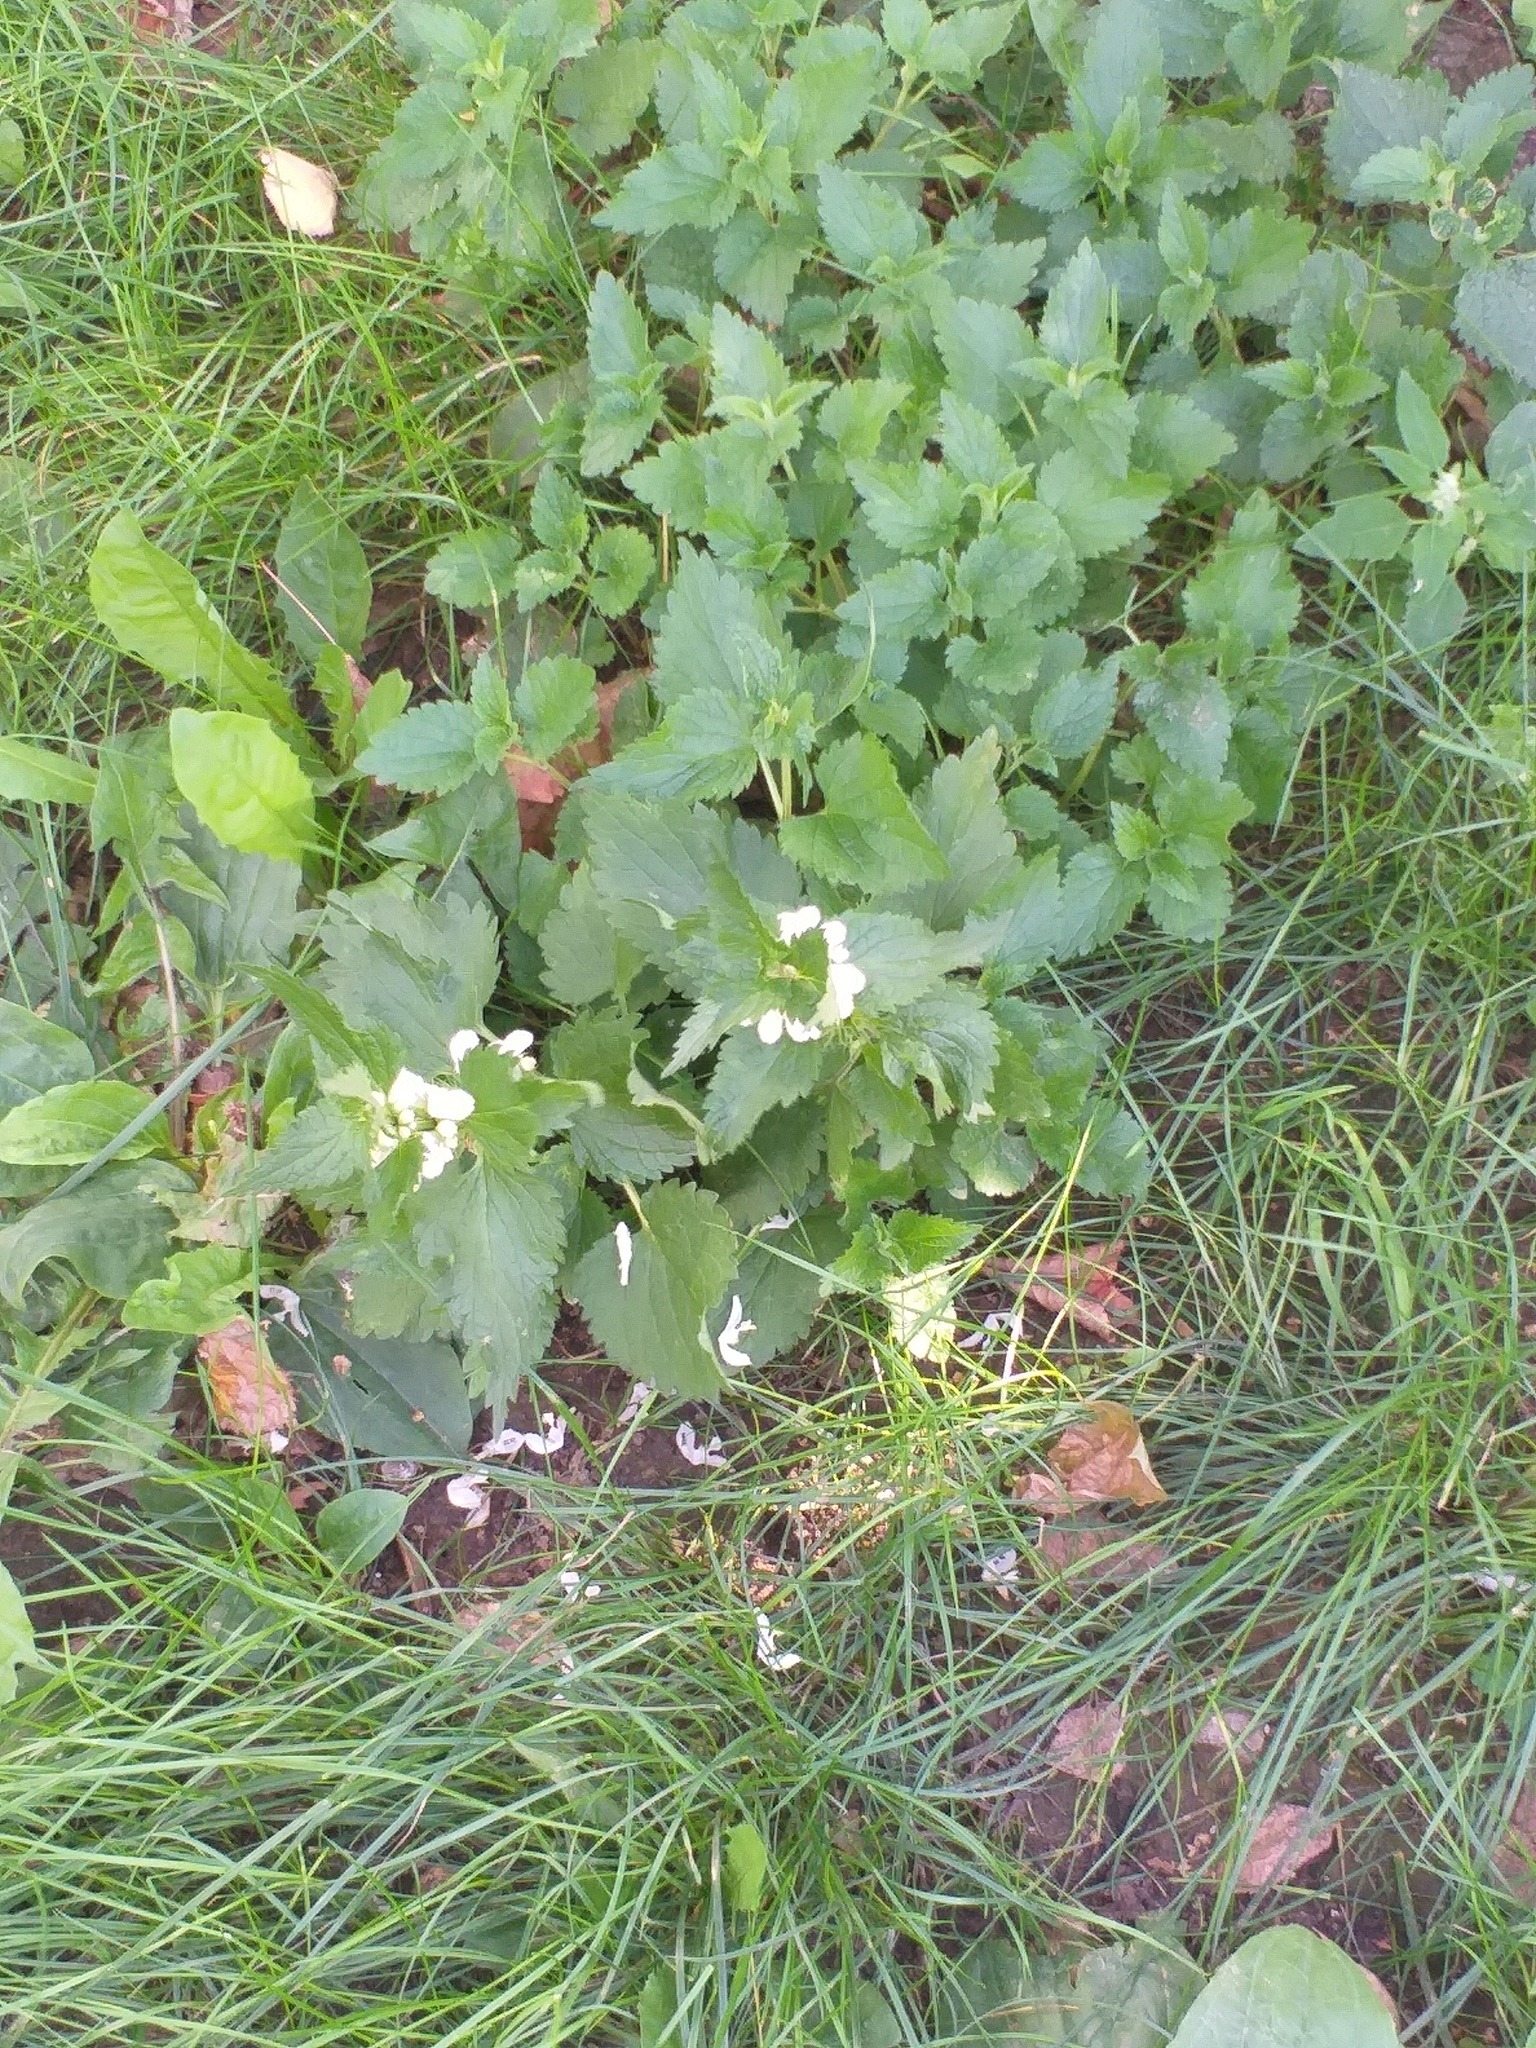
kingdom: Plantae
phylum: Tracheophyta
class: Magnoliopsida
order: Lamiales
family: Lamiaceae
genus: Lamium
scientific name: Lamium album
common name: White dead-nettle
